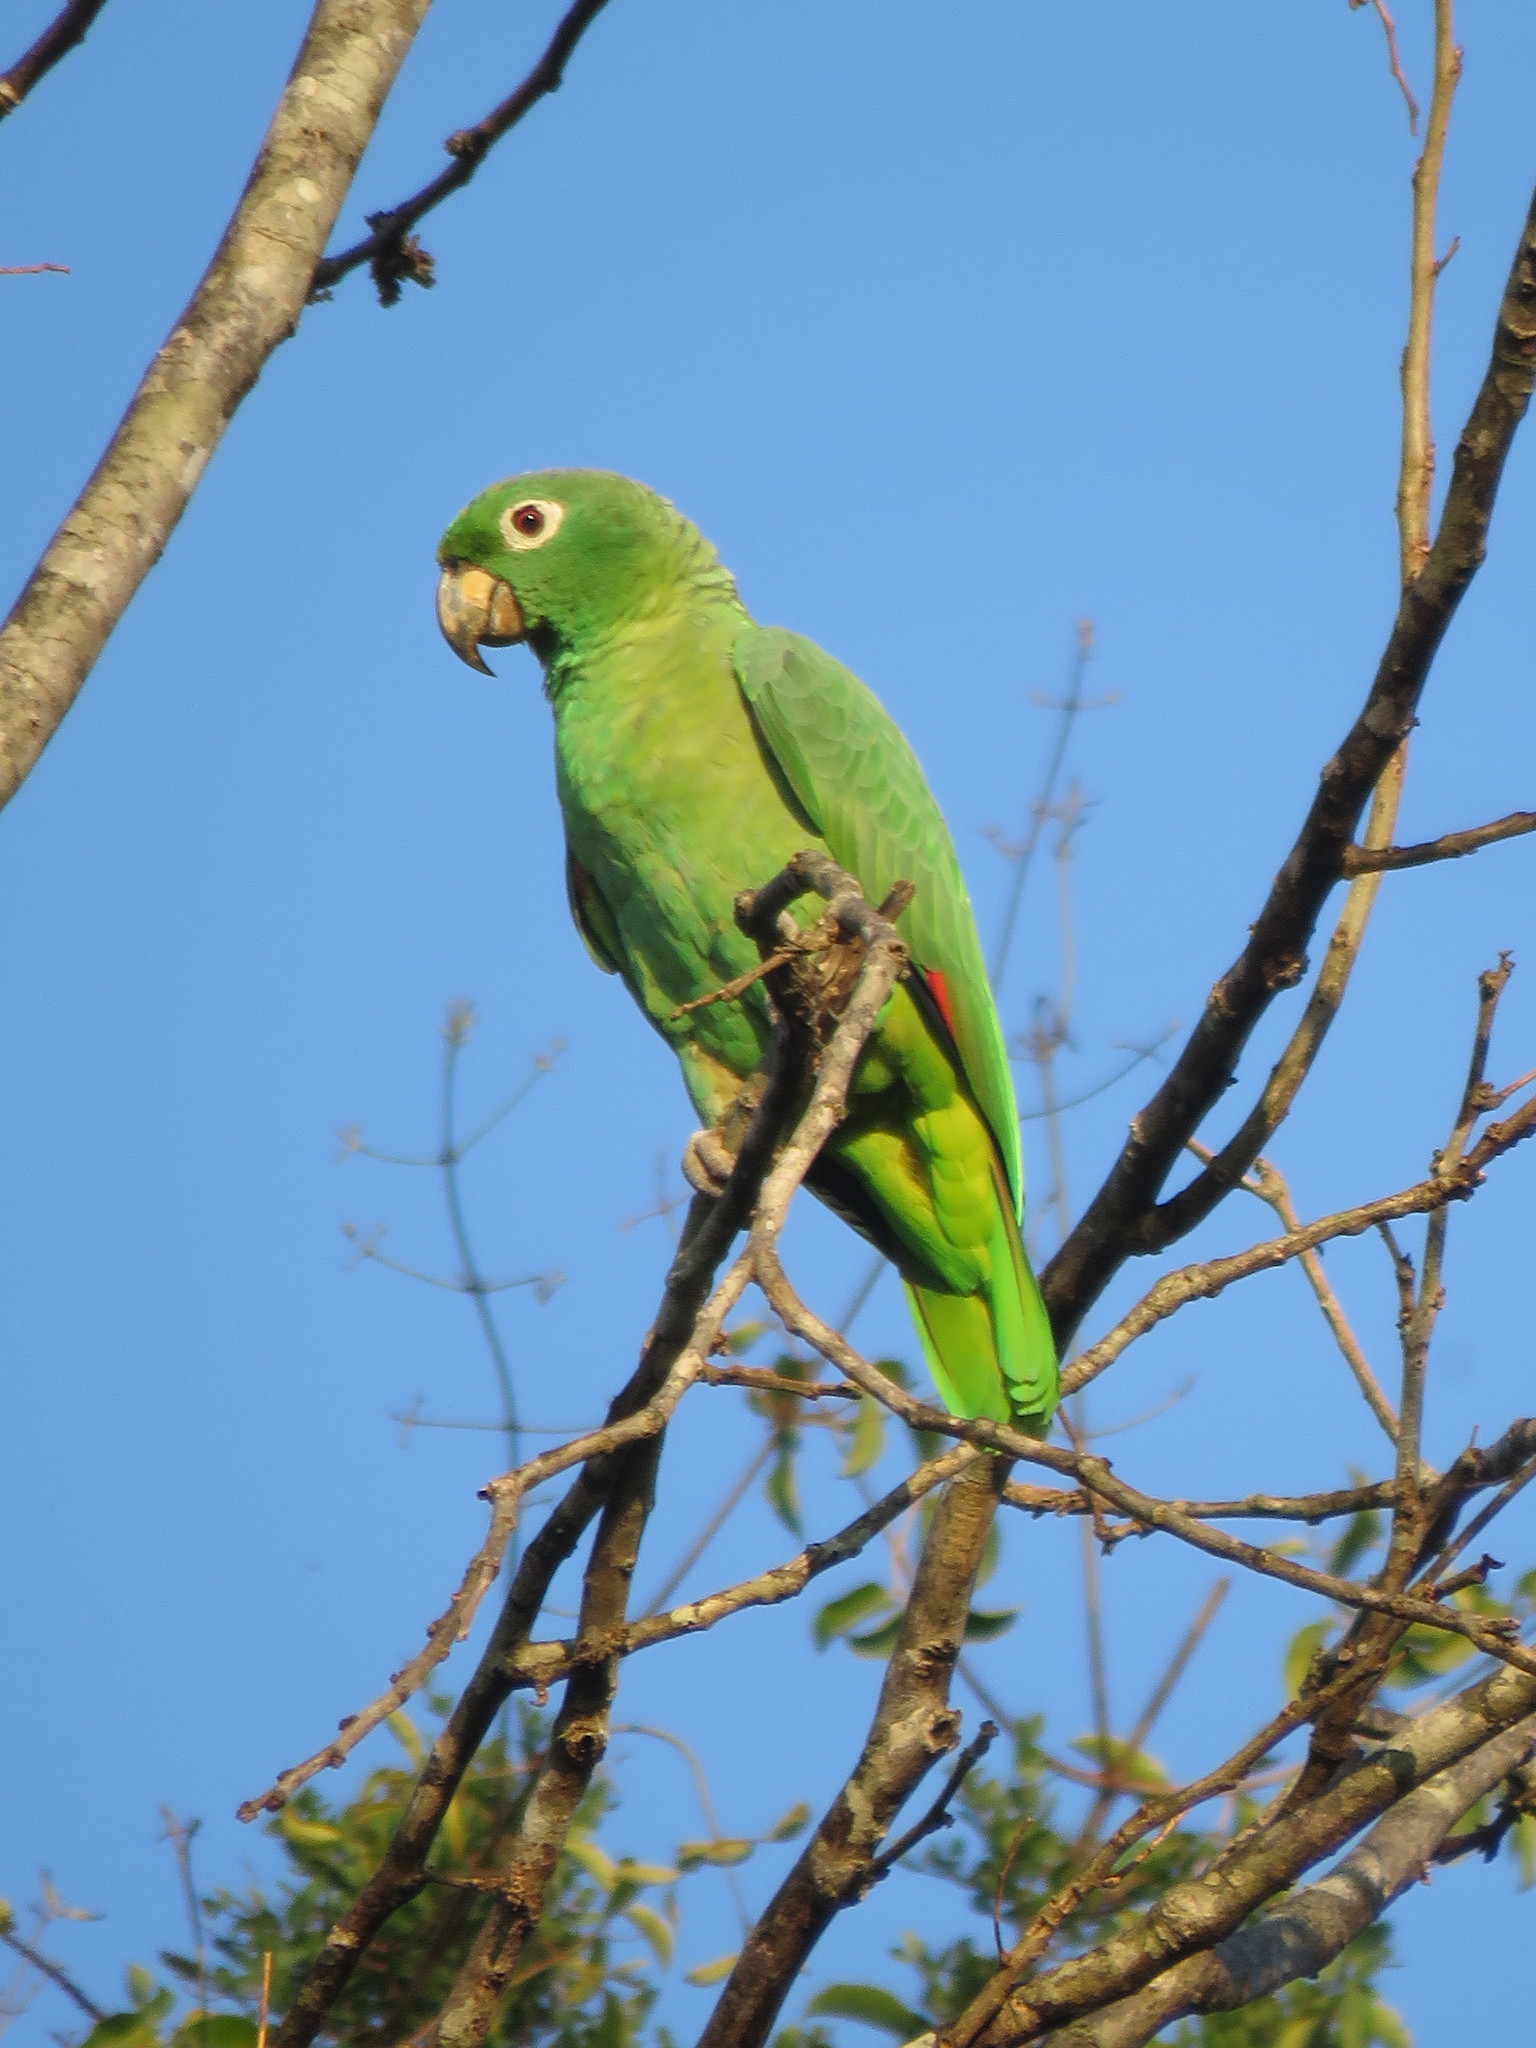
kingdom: Animalia
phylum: Chordata
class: Aves
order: Psittaciformes
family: Psittacidae
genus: Amazona
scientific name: Amazona farinosa
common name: Mealy parrot
